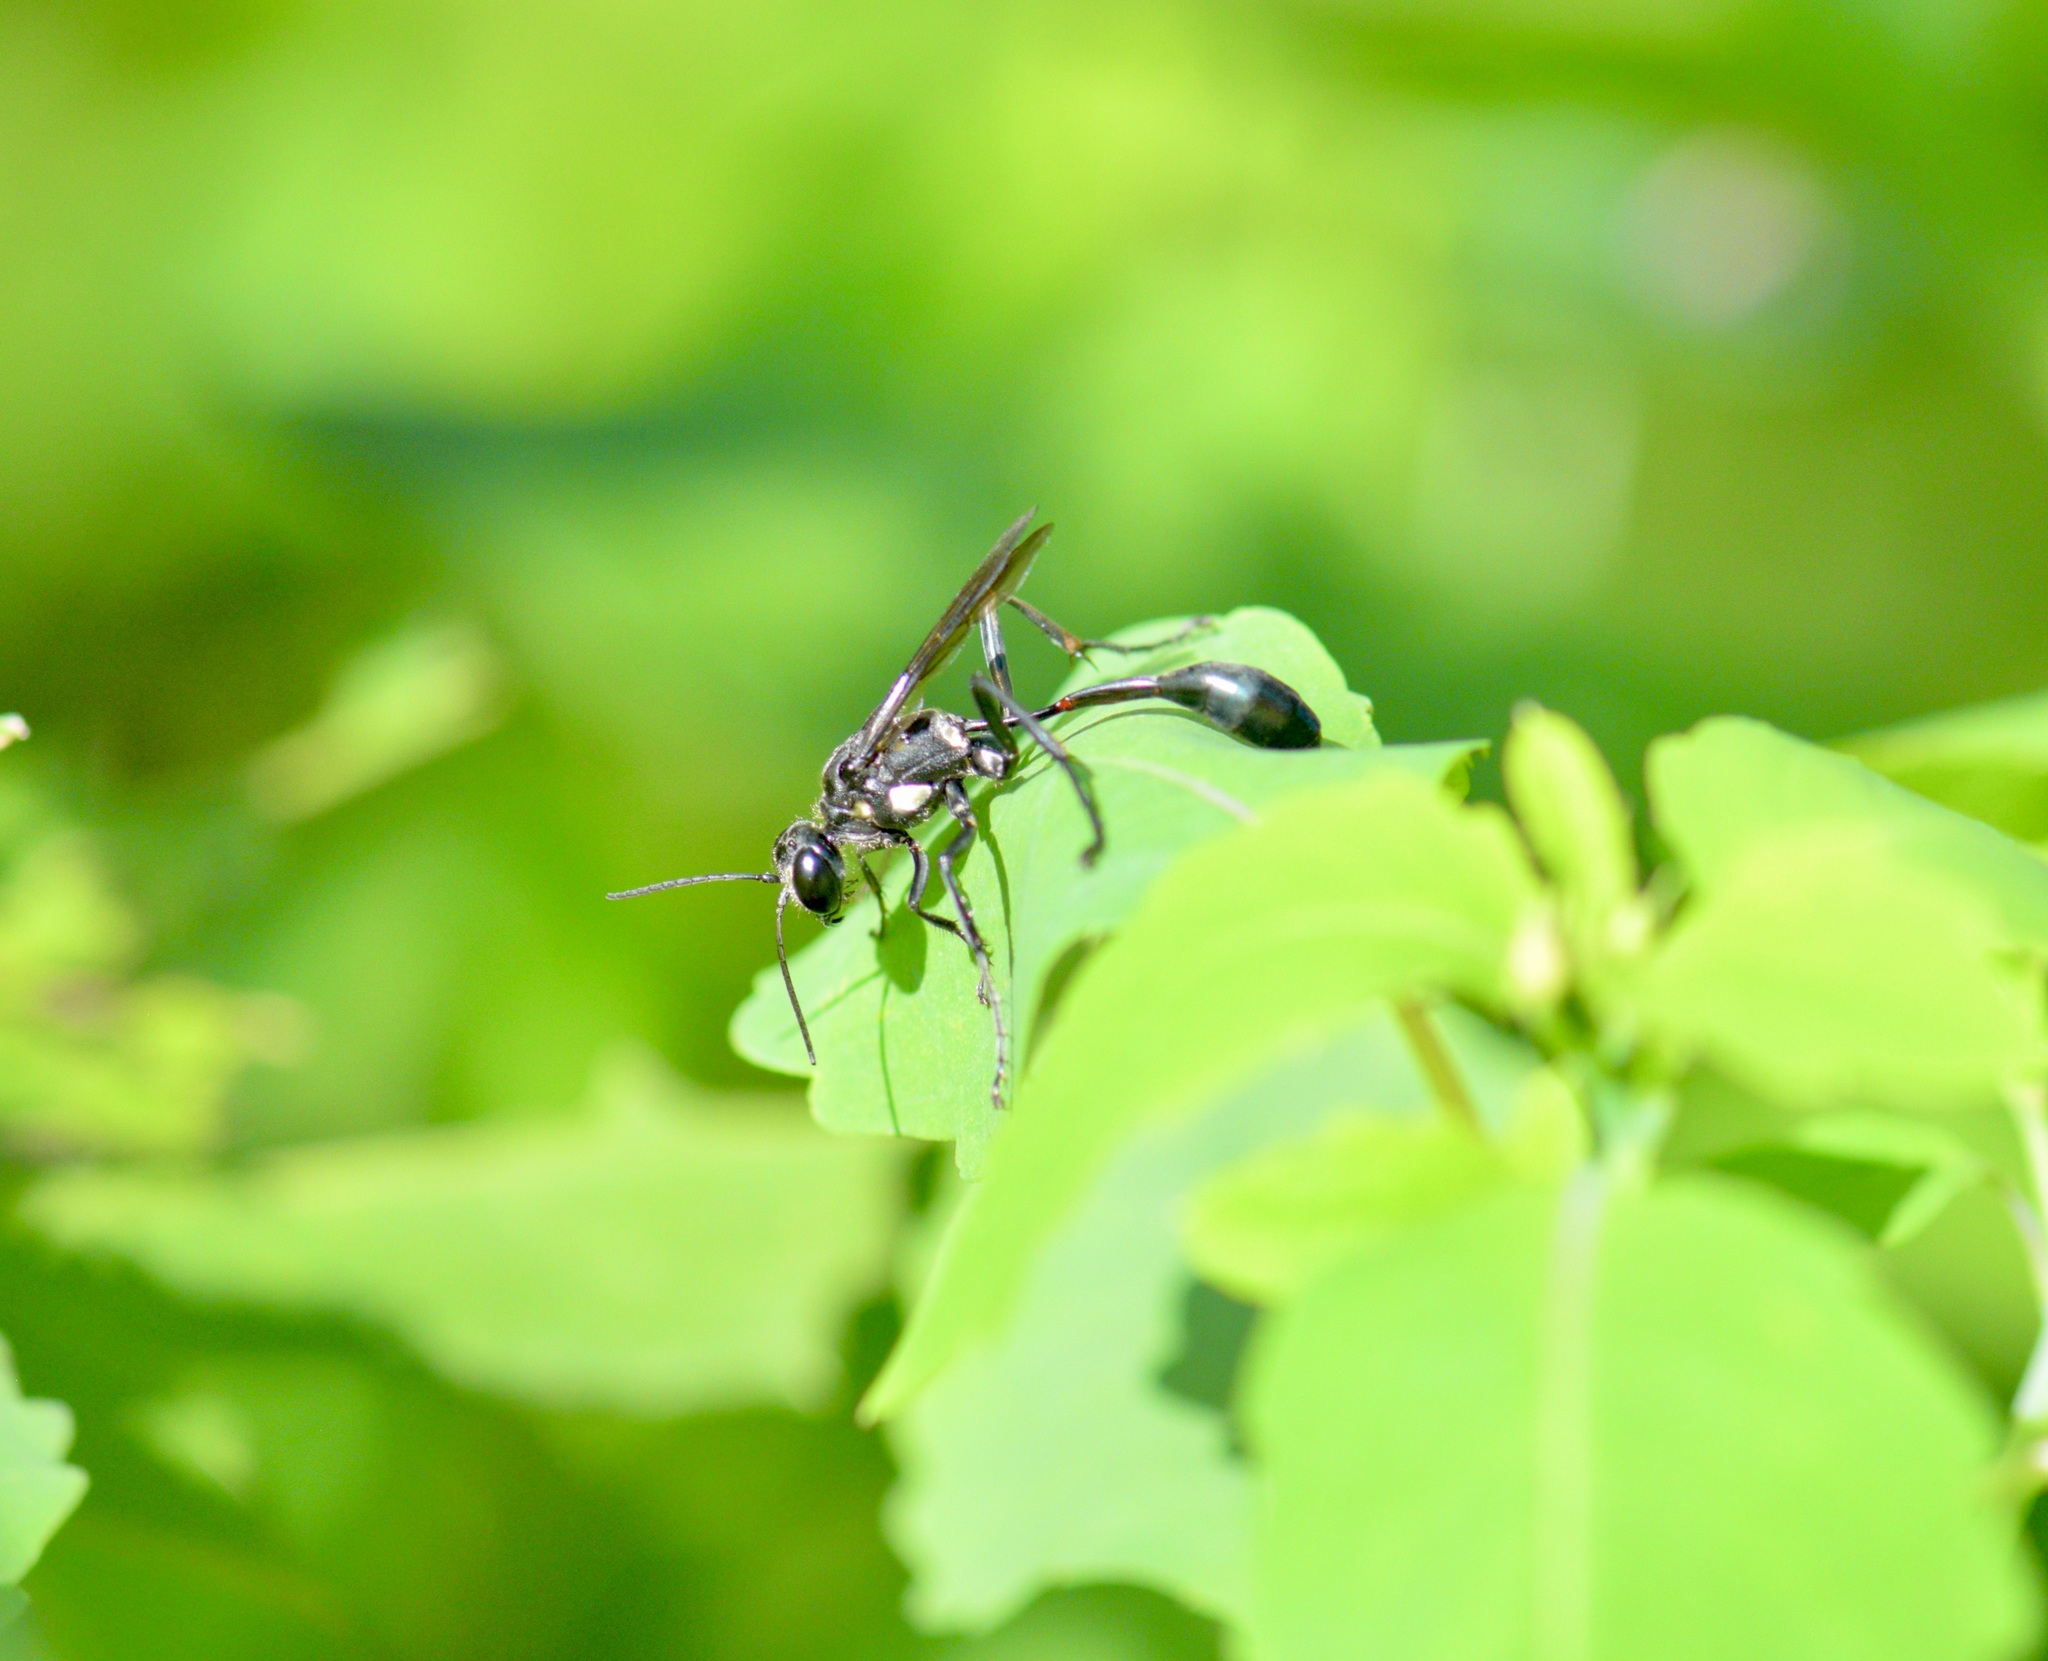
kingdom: Animalia
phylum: Arthropoda
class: Insecta
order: Hymenoptera
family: Sphecidae
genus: Eremnophila
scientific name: Eremnophila aureonotata
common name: Gold-marked thread-waisted wasp
